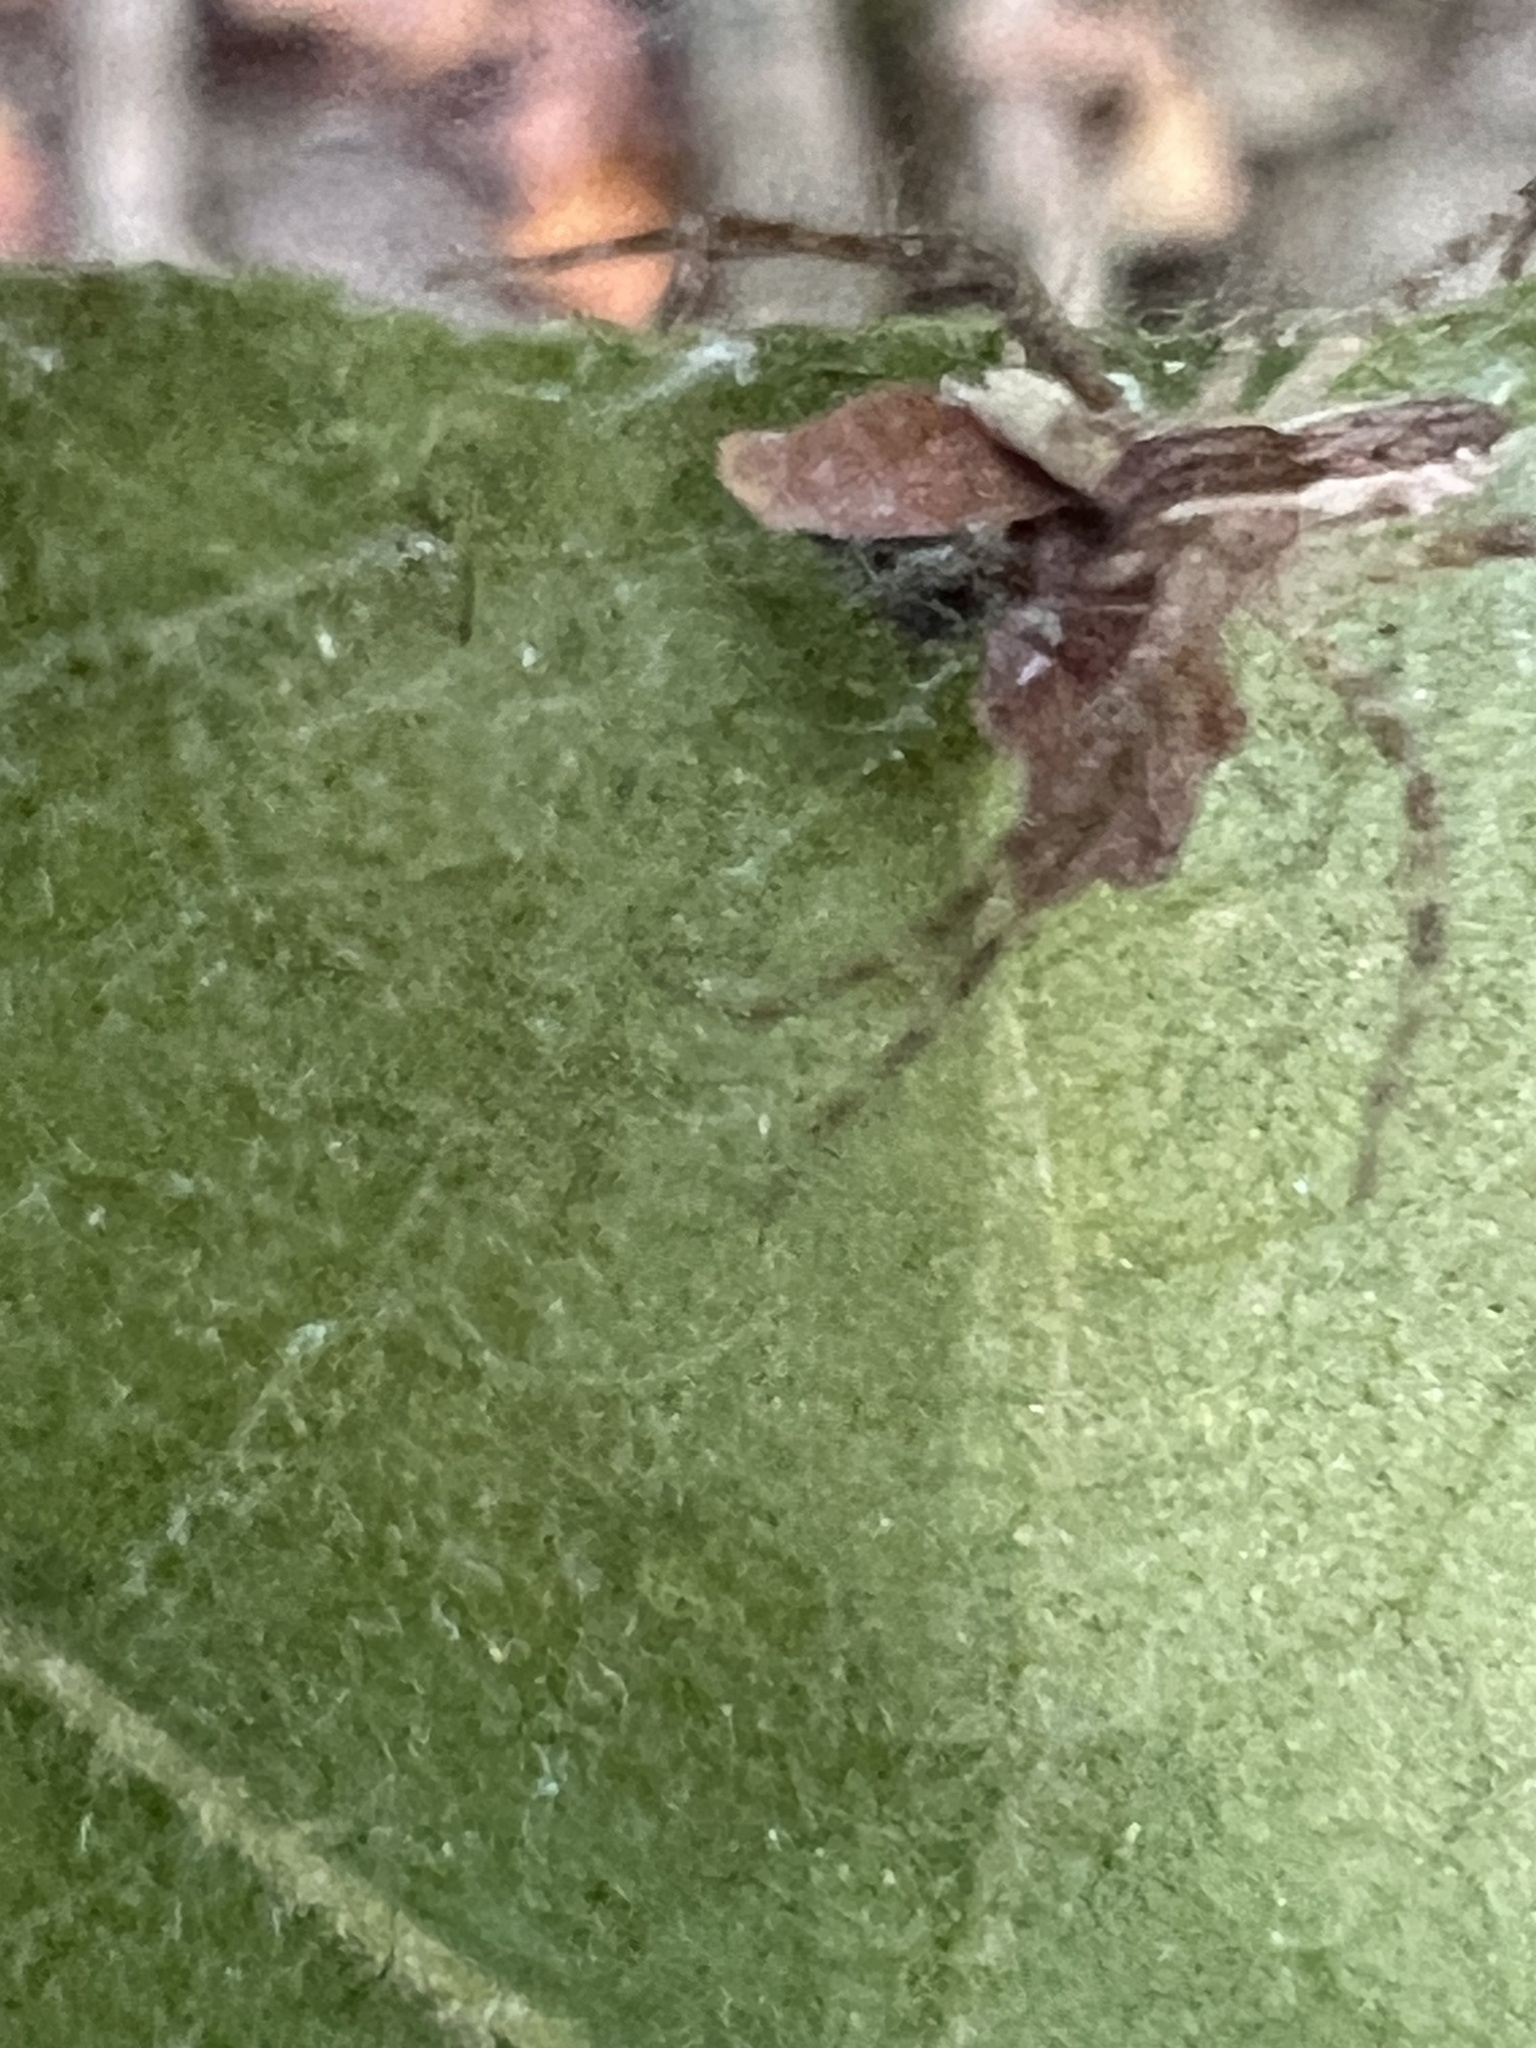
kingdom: Animalia
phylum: Arthropoda
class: Arachnida
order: Araneae
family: Pisauridae
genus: Pisaurina
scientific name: Pisaurina mira
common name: American nursery web spider
